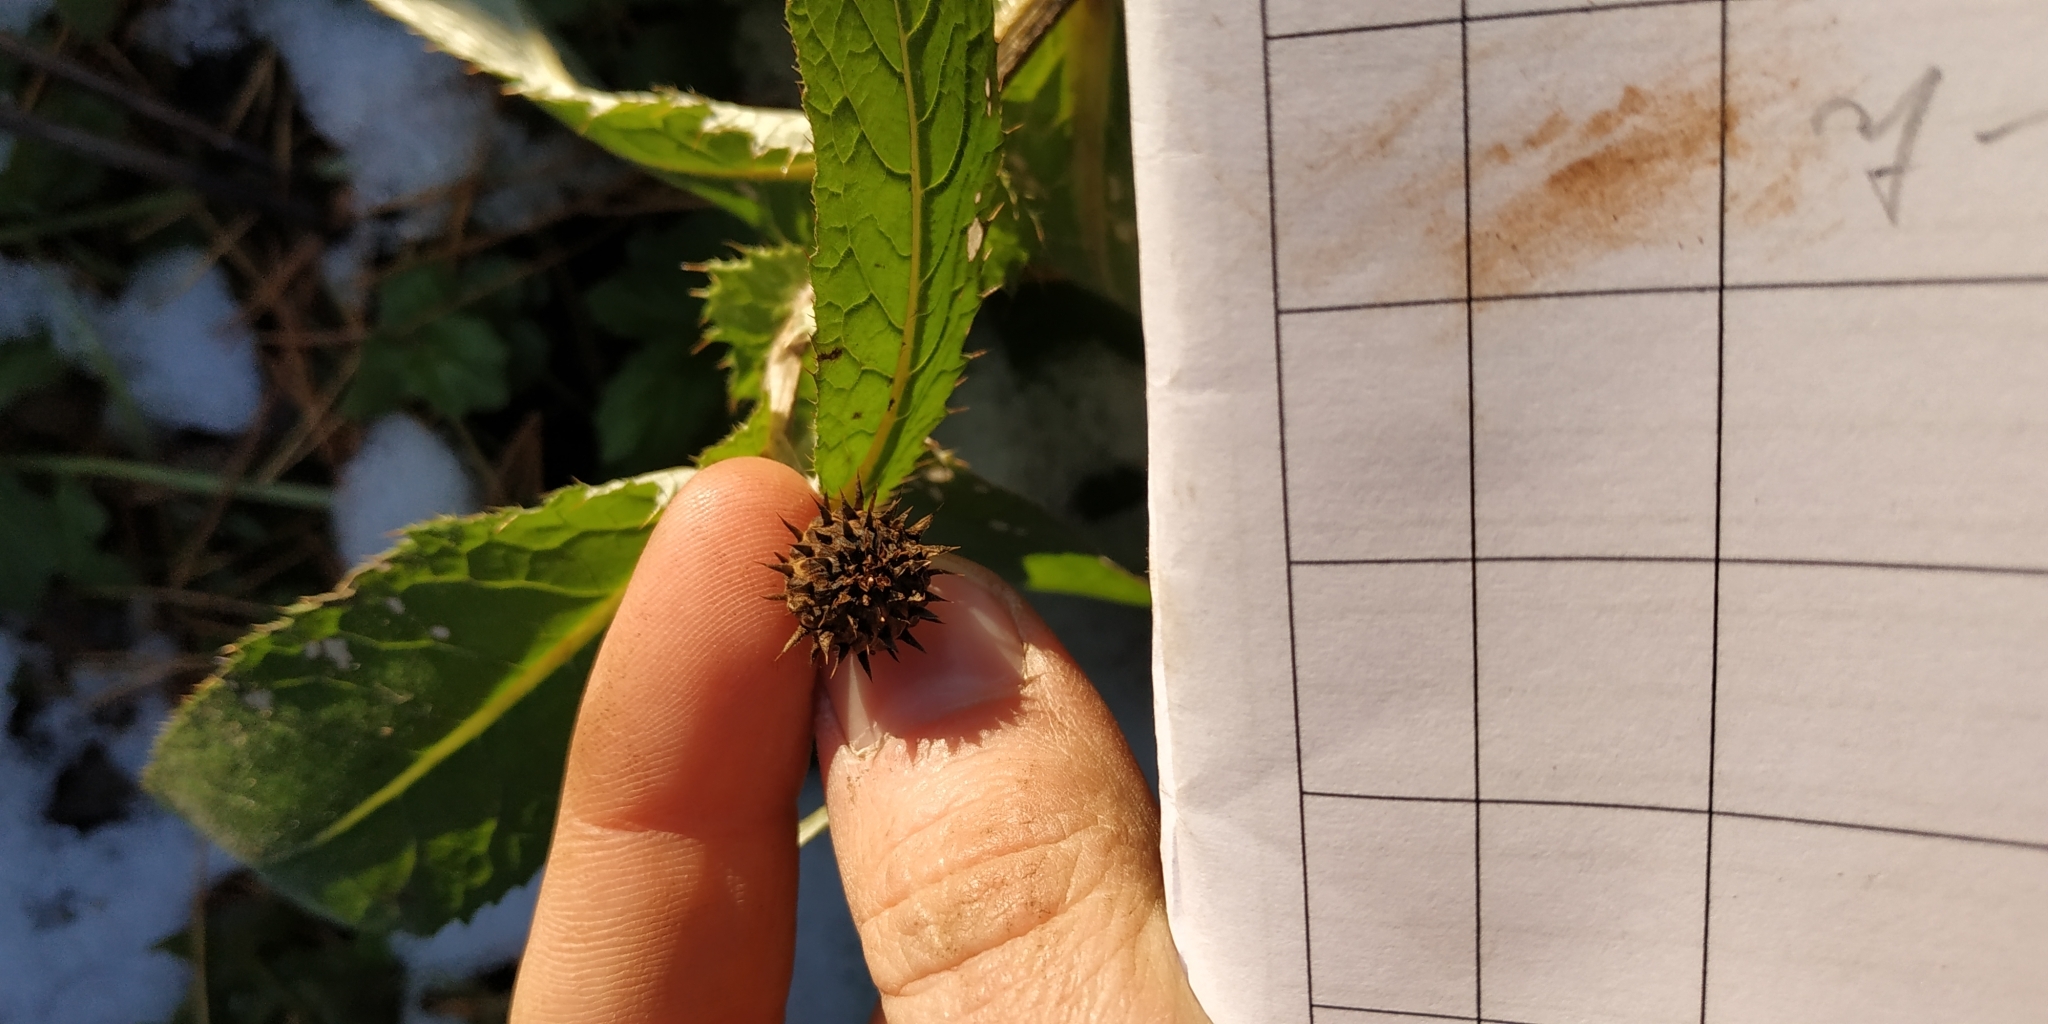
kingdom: Plantae
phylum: Tracheophyta
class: Magnoliopsida
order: Asterales
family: Asteraceae
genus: Cirsium
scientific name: Cirsium helenioides
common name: Melancholy thistle
